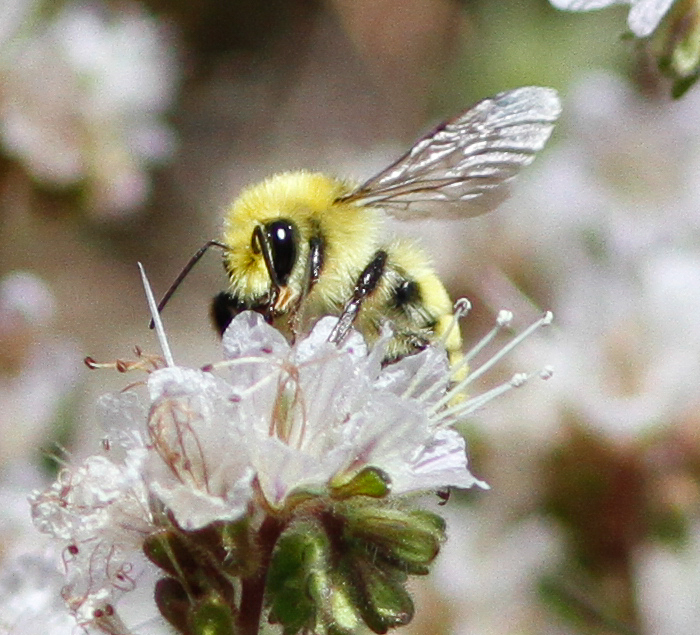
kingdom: Animalia
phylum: Arthropoda
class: Insecta
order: Hymenoptera
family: Apidae
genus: Bombus
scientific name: Bombus vandykei
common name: Van dyke bumble bee
